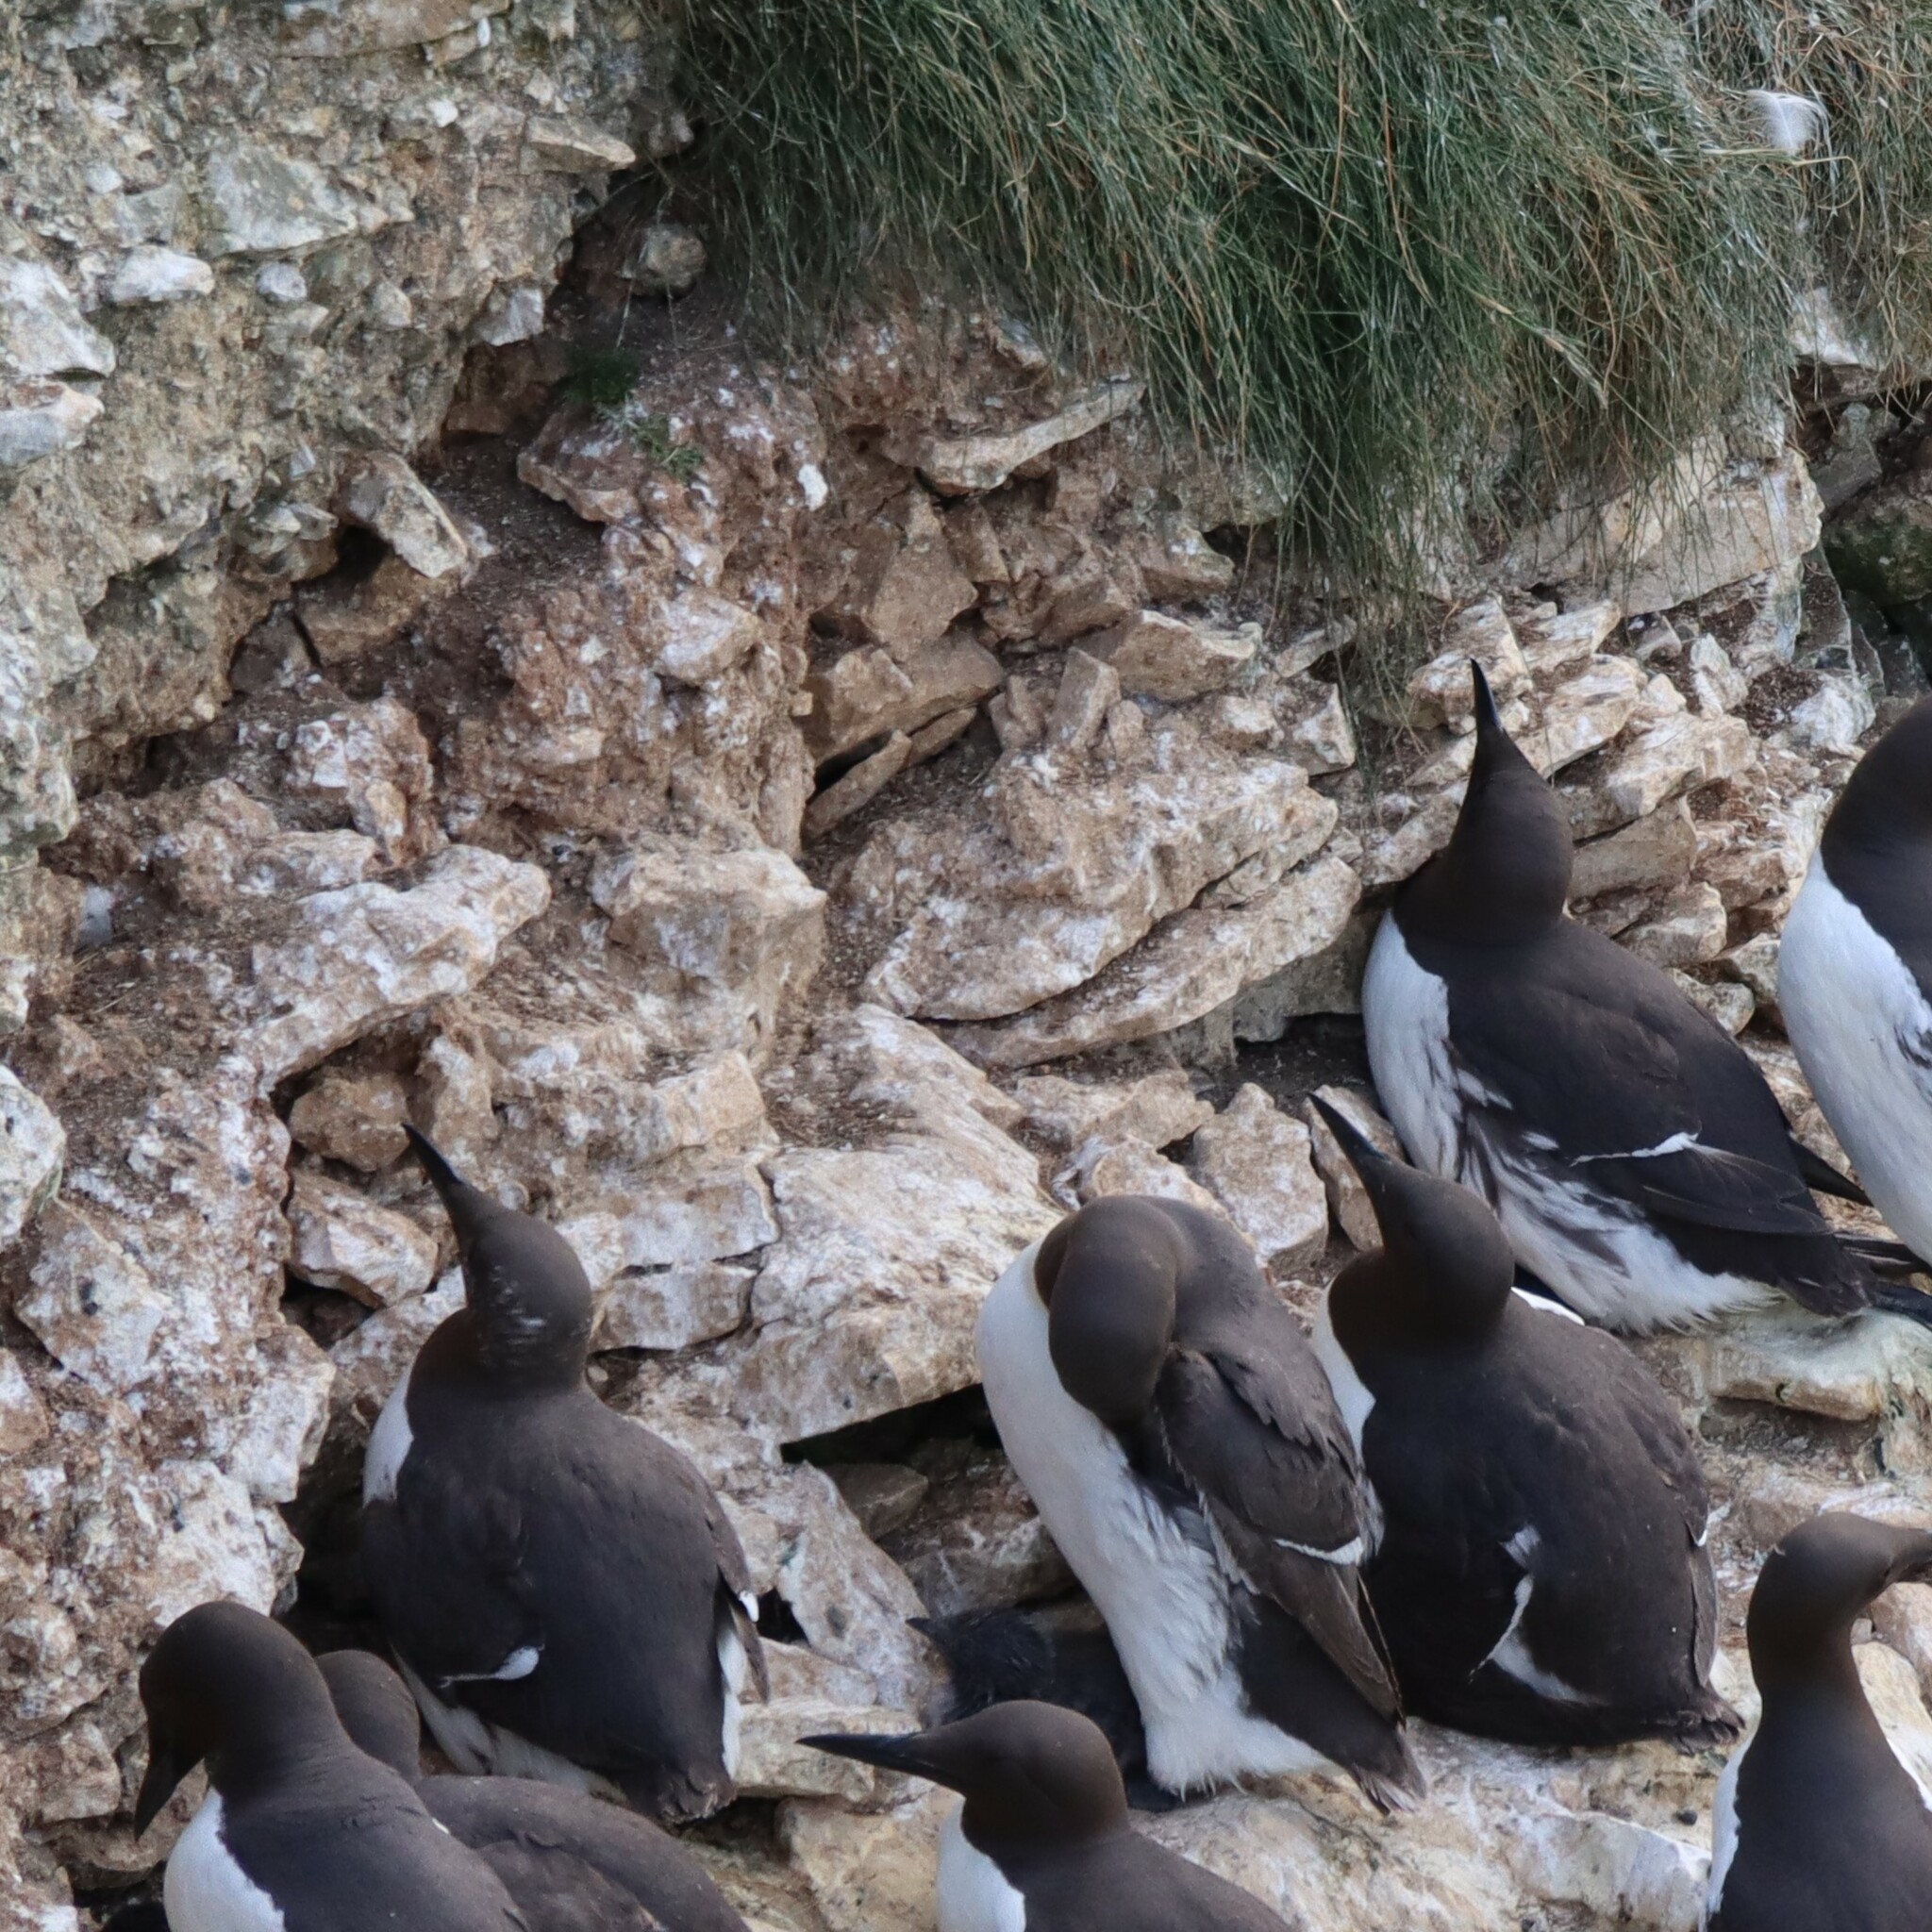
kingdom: Animalia
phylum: Chordata
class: Aves
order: Charadriiformes
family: Alcidae
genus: Uria
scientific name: Uria aalge
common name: Common murre
